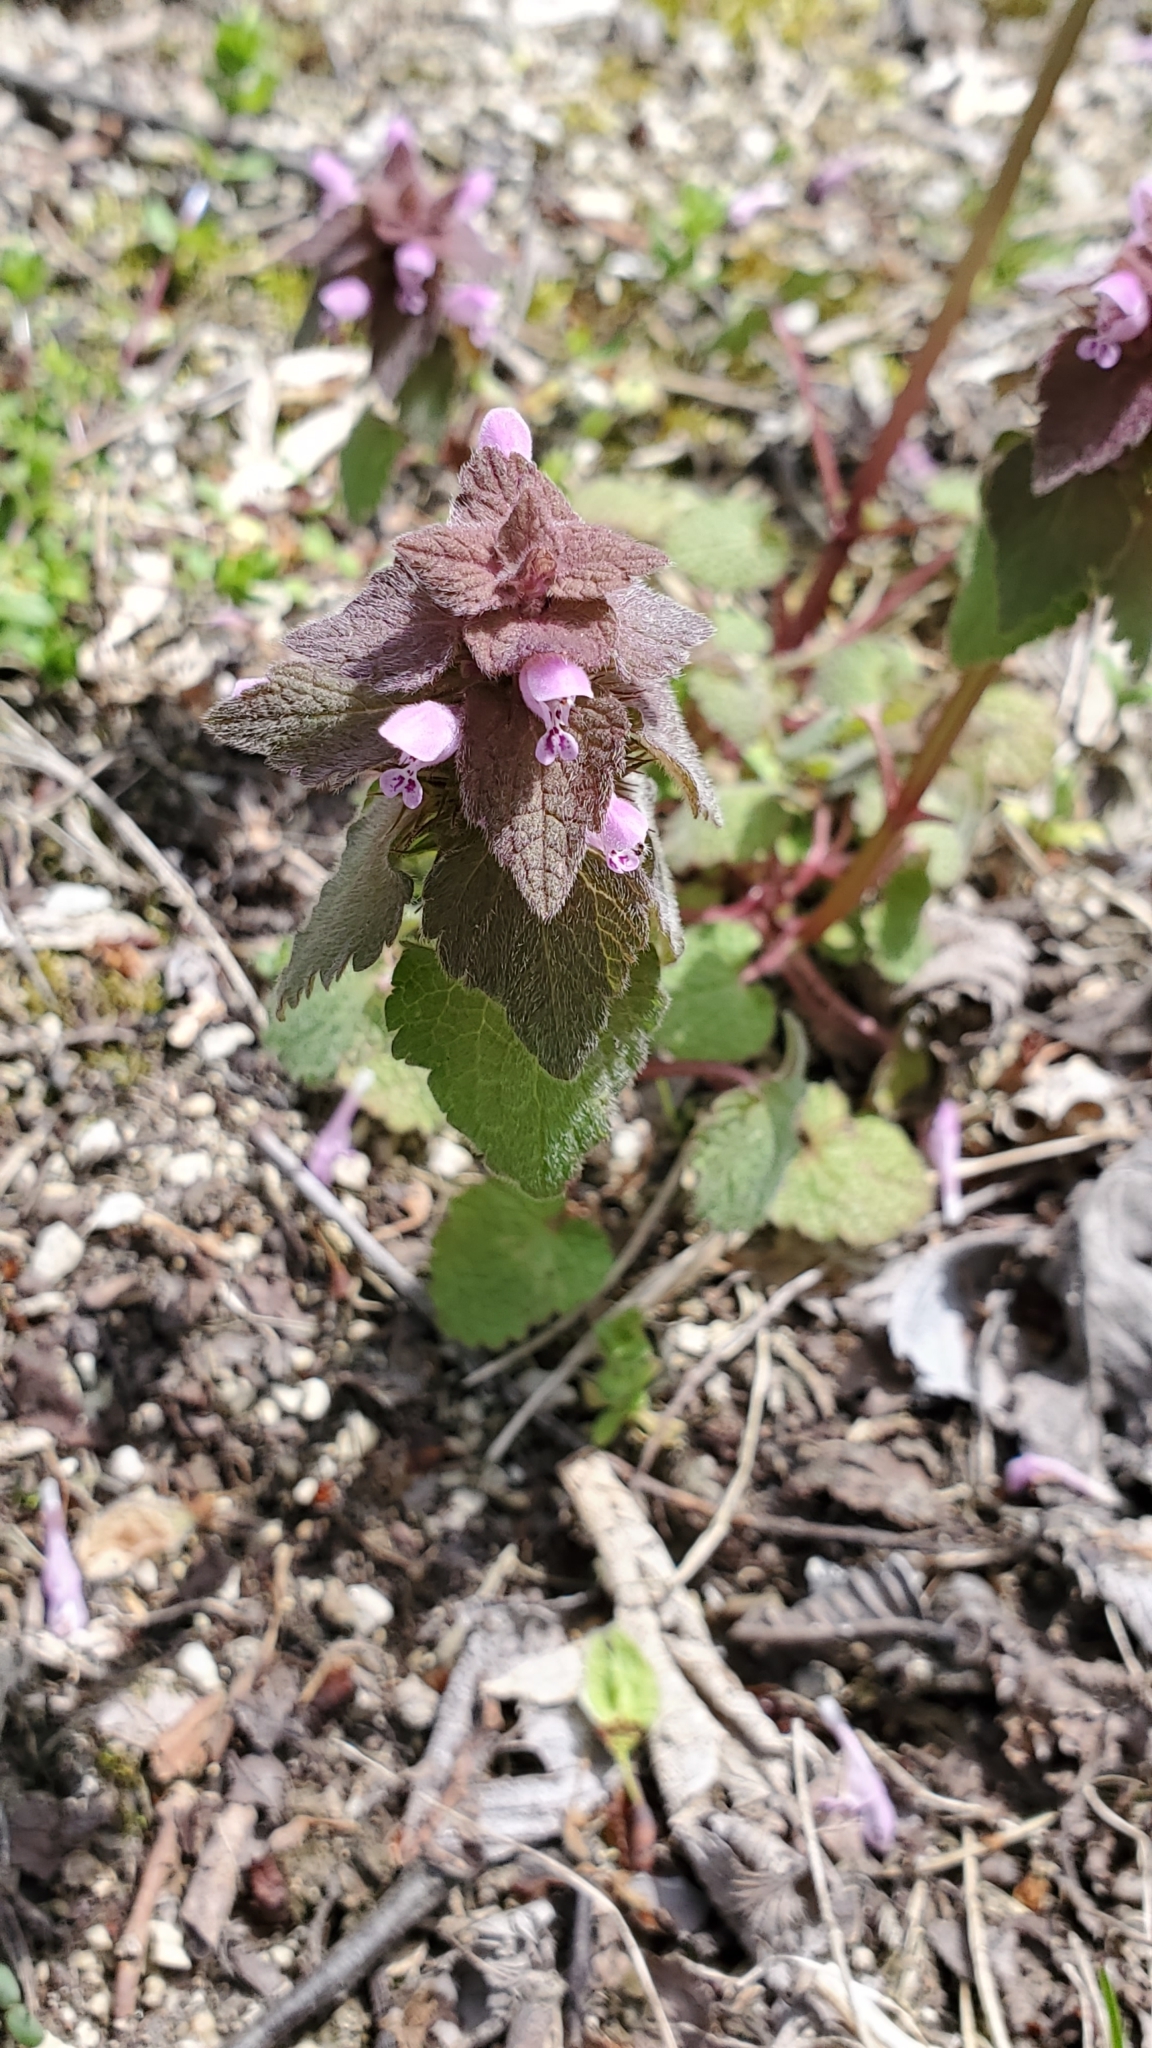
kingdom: Plantae
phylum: Tracheophyta
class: Magnoliopsida
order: Lamiales
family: Lamiaceae
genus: Lamium
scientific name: Lamium purpureum
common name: Red dead-nettle
